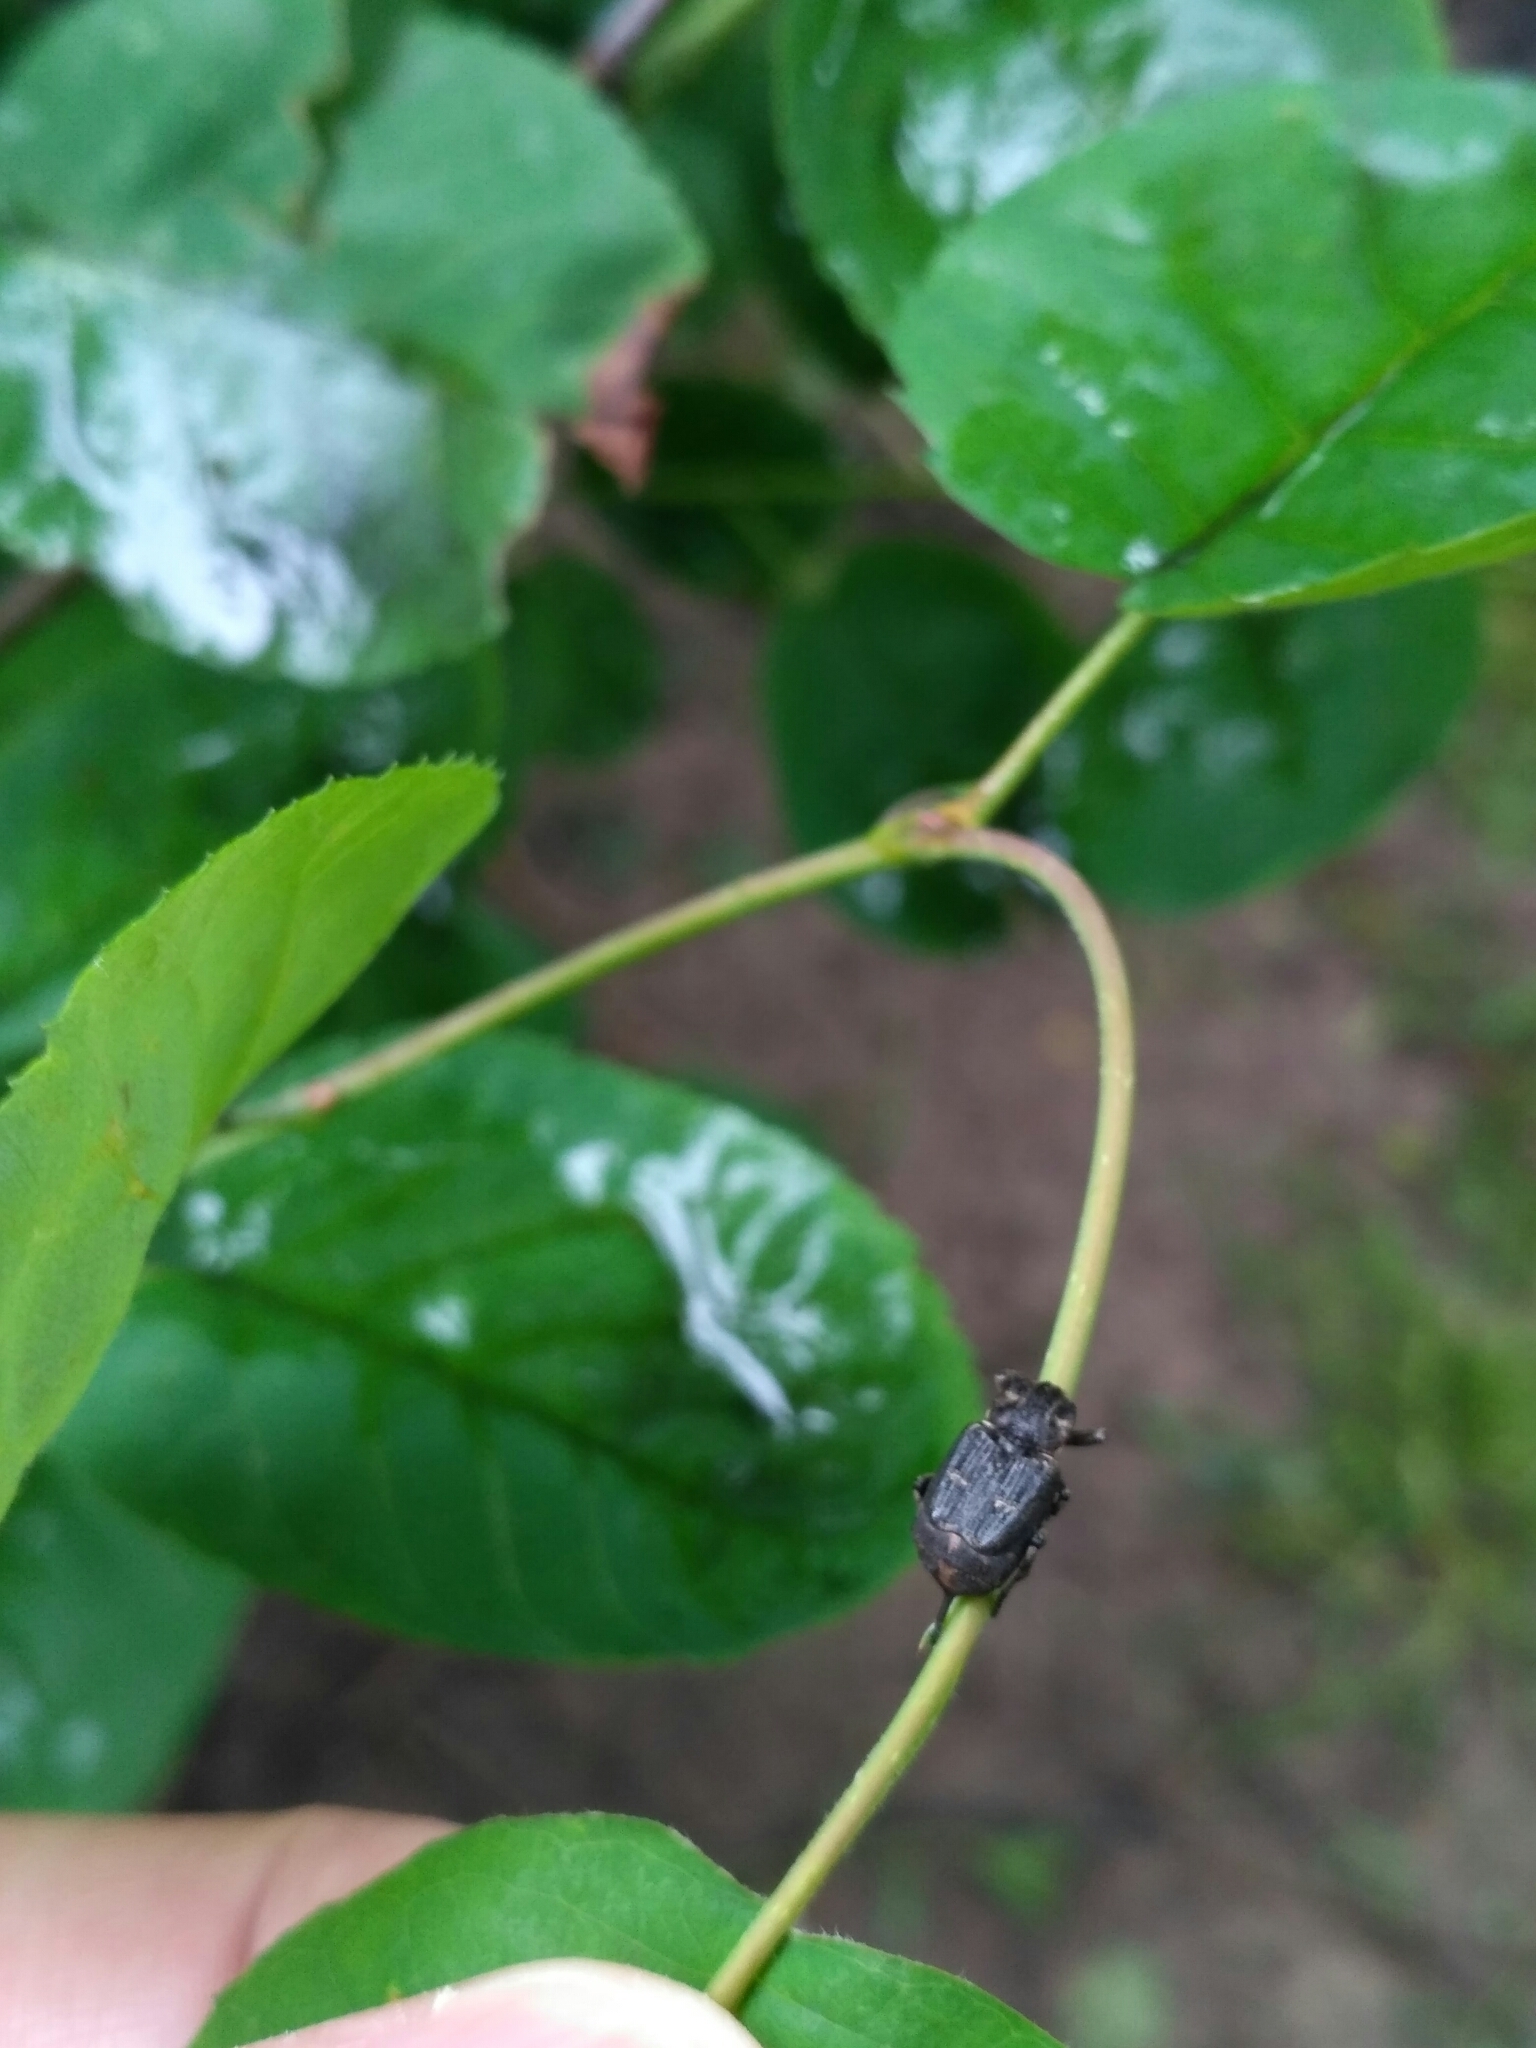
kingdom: Animalia
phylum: Arthropoda
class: Insecta
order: Coleoptera
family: Scarabaeidae
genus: Valgus
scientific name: Valgus hemipterus
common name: Bug flower chafer
